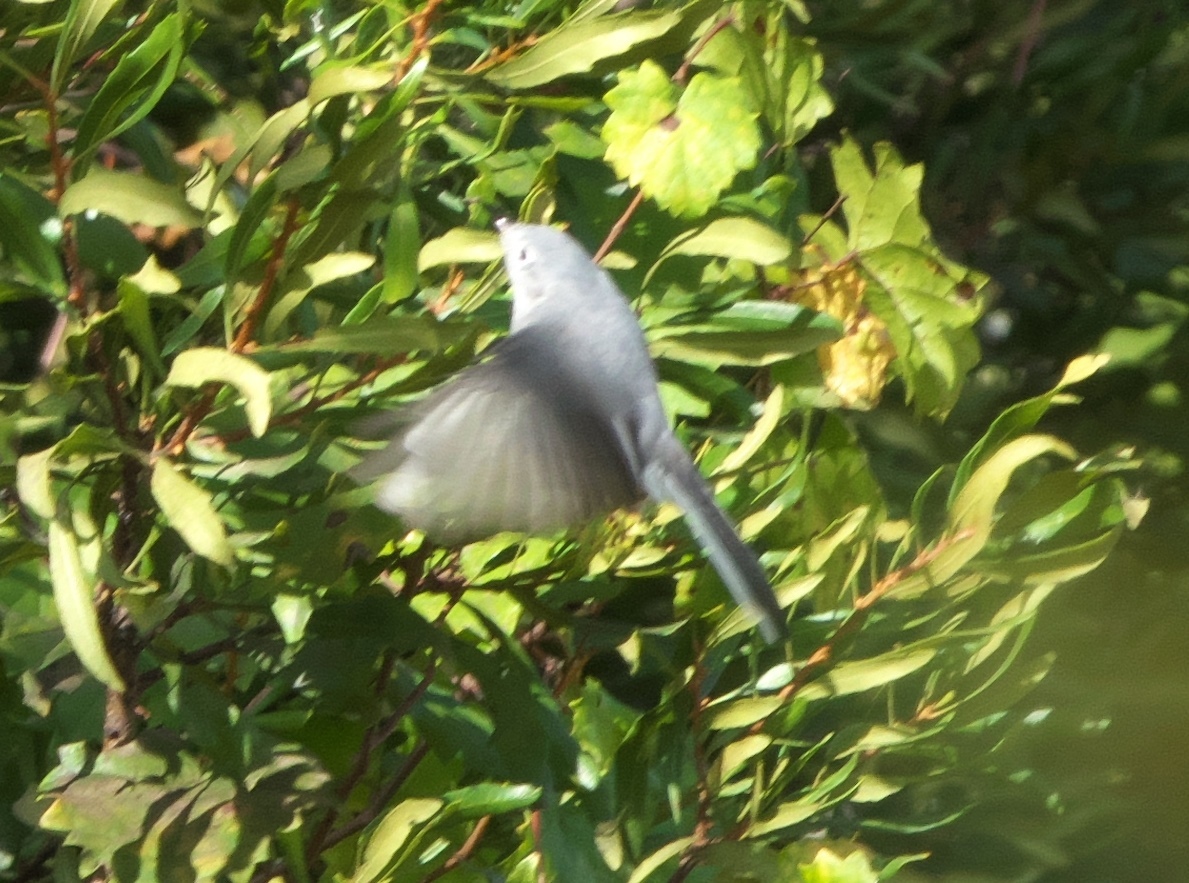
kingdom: Animalia
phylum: Chordata
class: Aves
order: Passeriformes
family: Polioptilidae
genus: Polioptila
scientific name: Polioptila caerulea
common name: Blue-gray gnatcatcher
